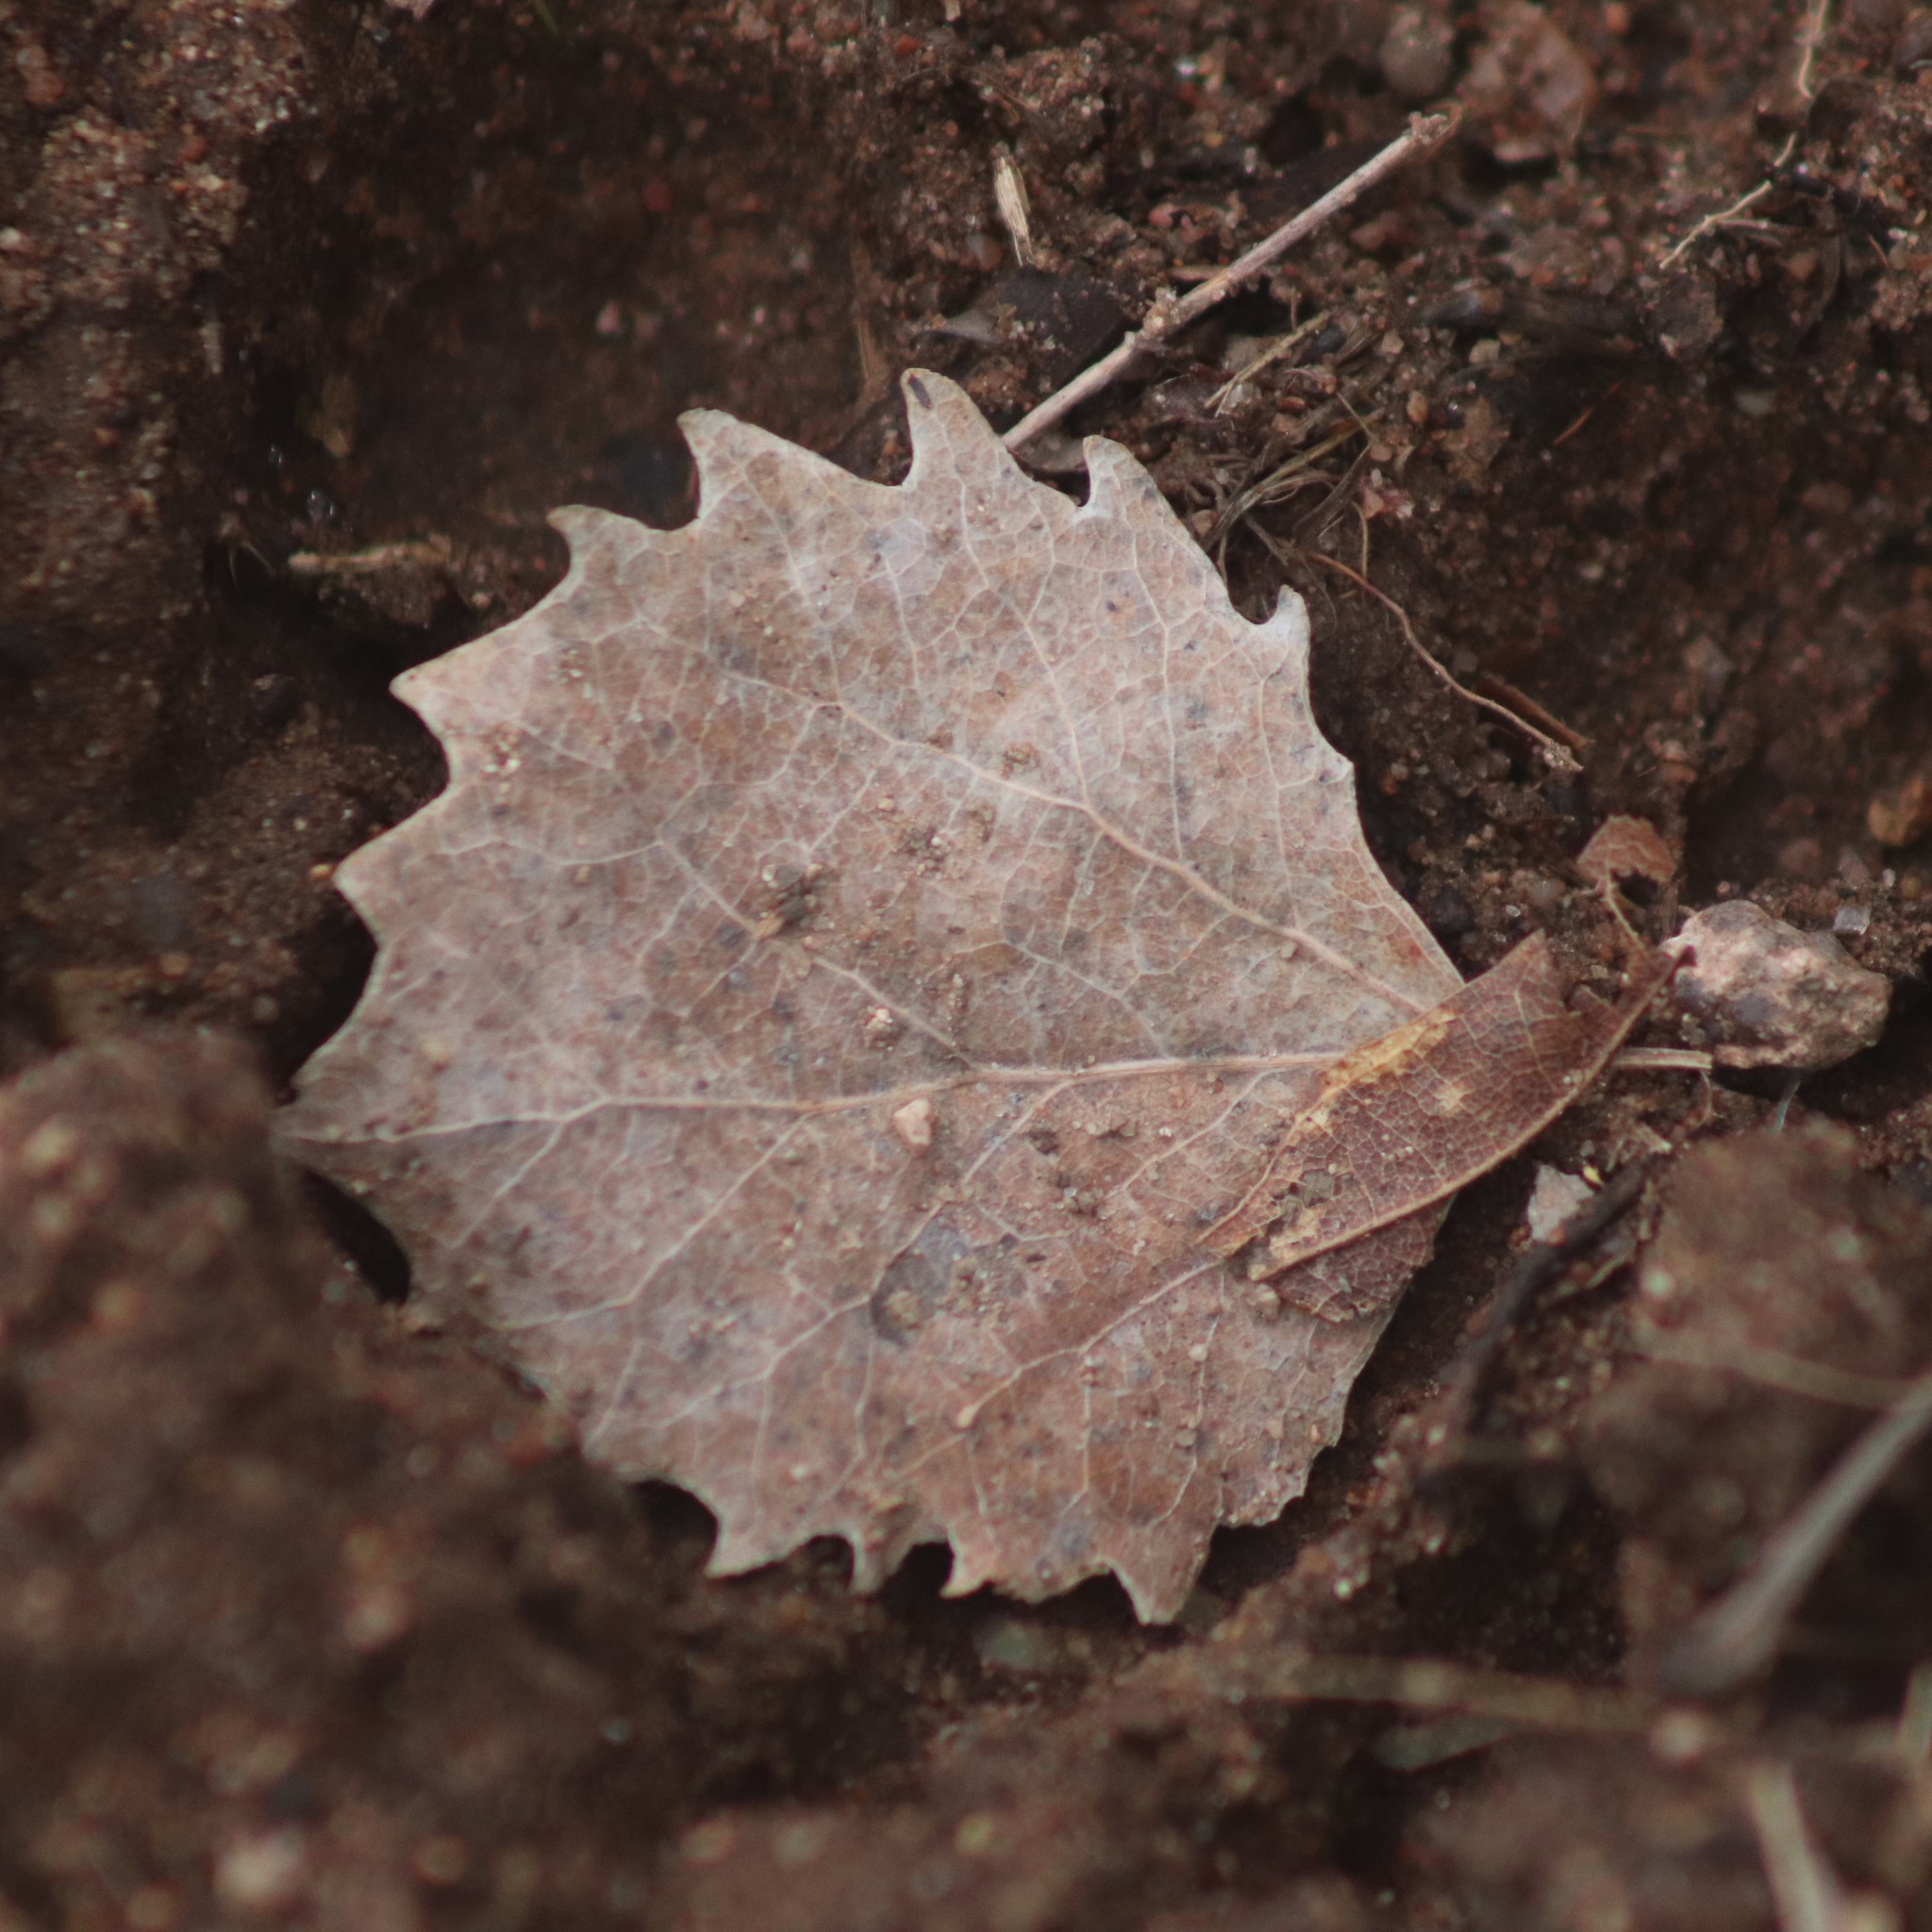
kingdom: Plantae
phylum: Tracheophyta
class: Magnoliopsida
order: Malpighiales
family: Salicaceae
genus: Populus
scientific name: Populus grandidentata
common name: Bigtooth aspen
